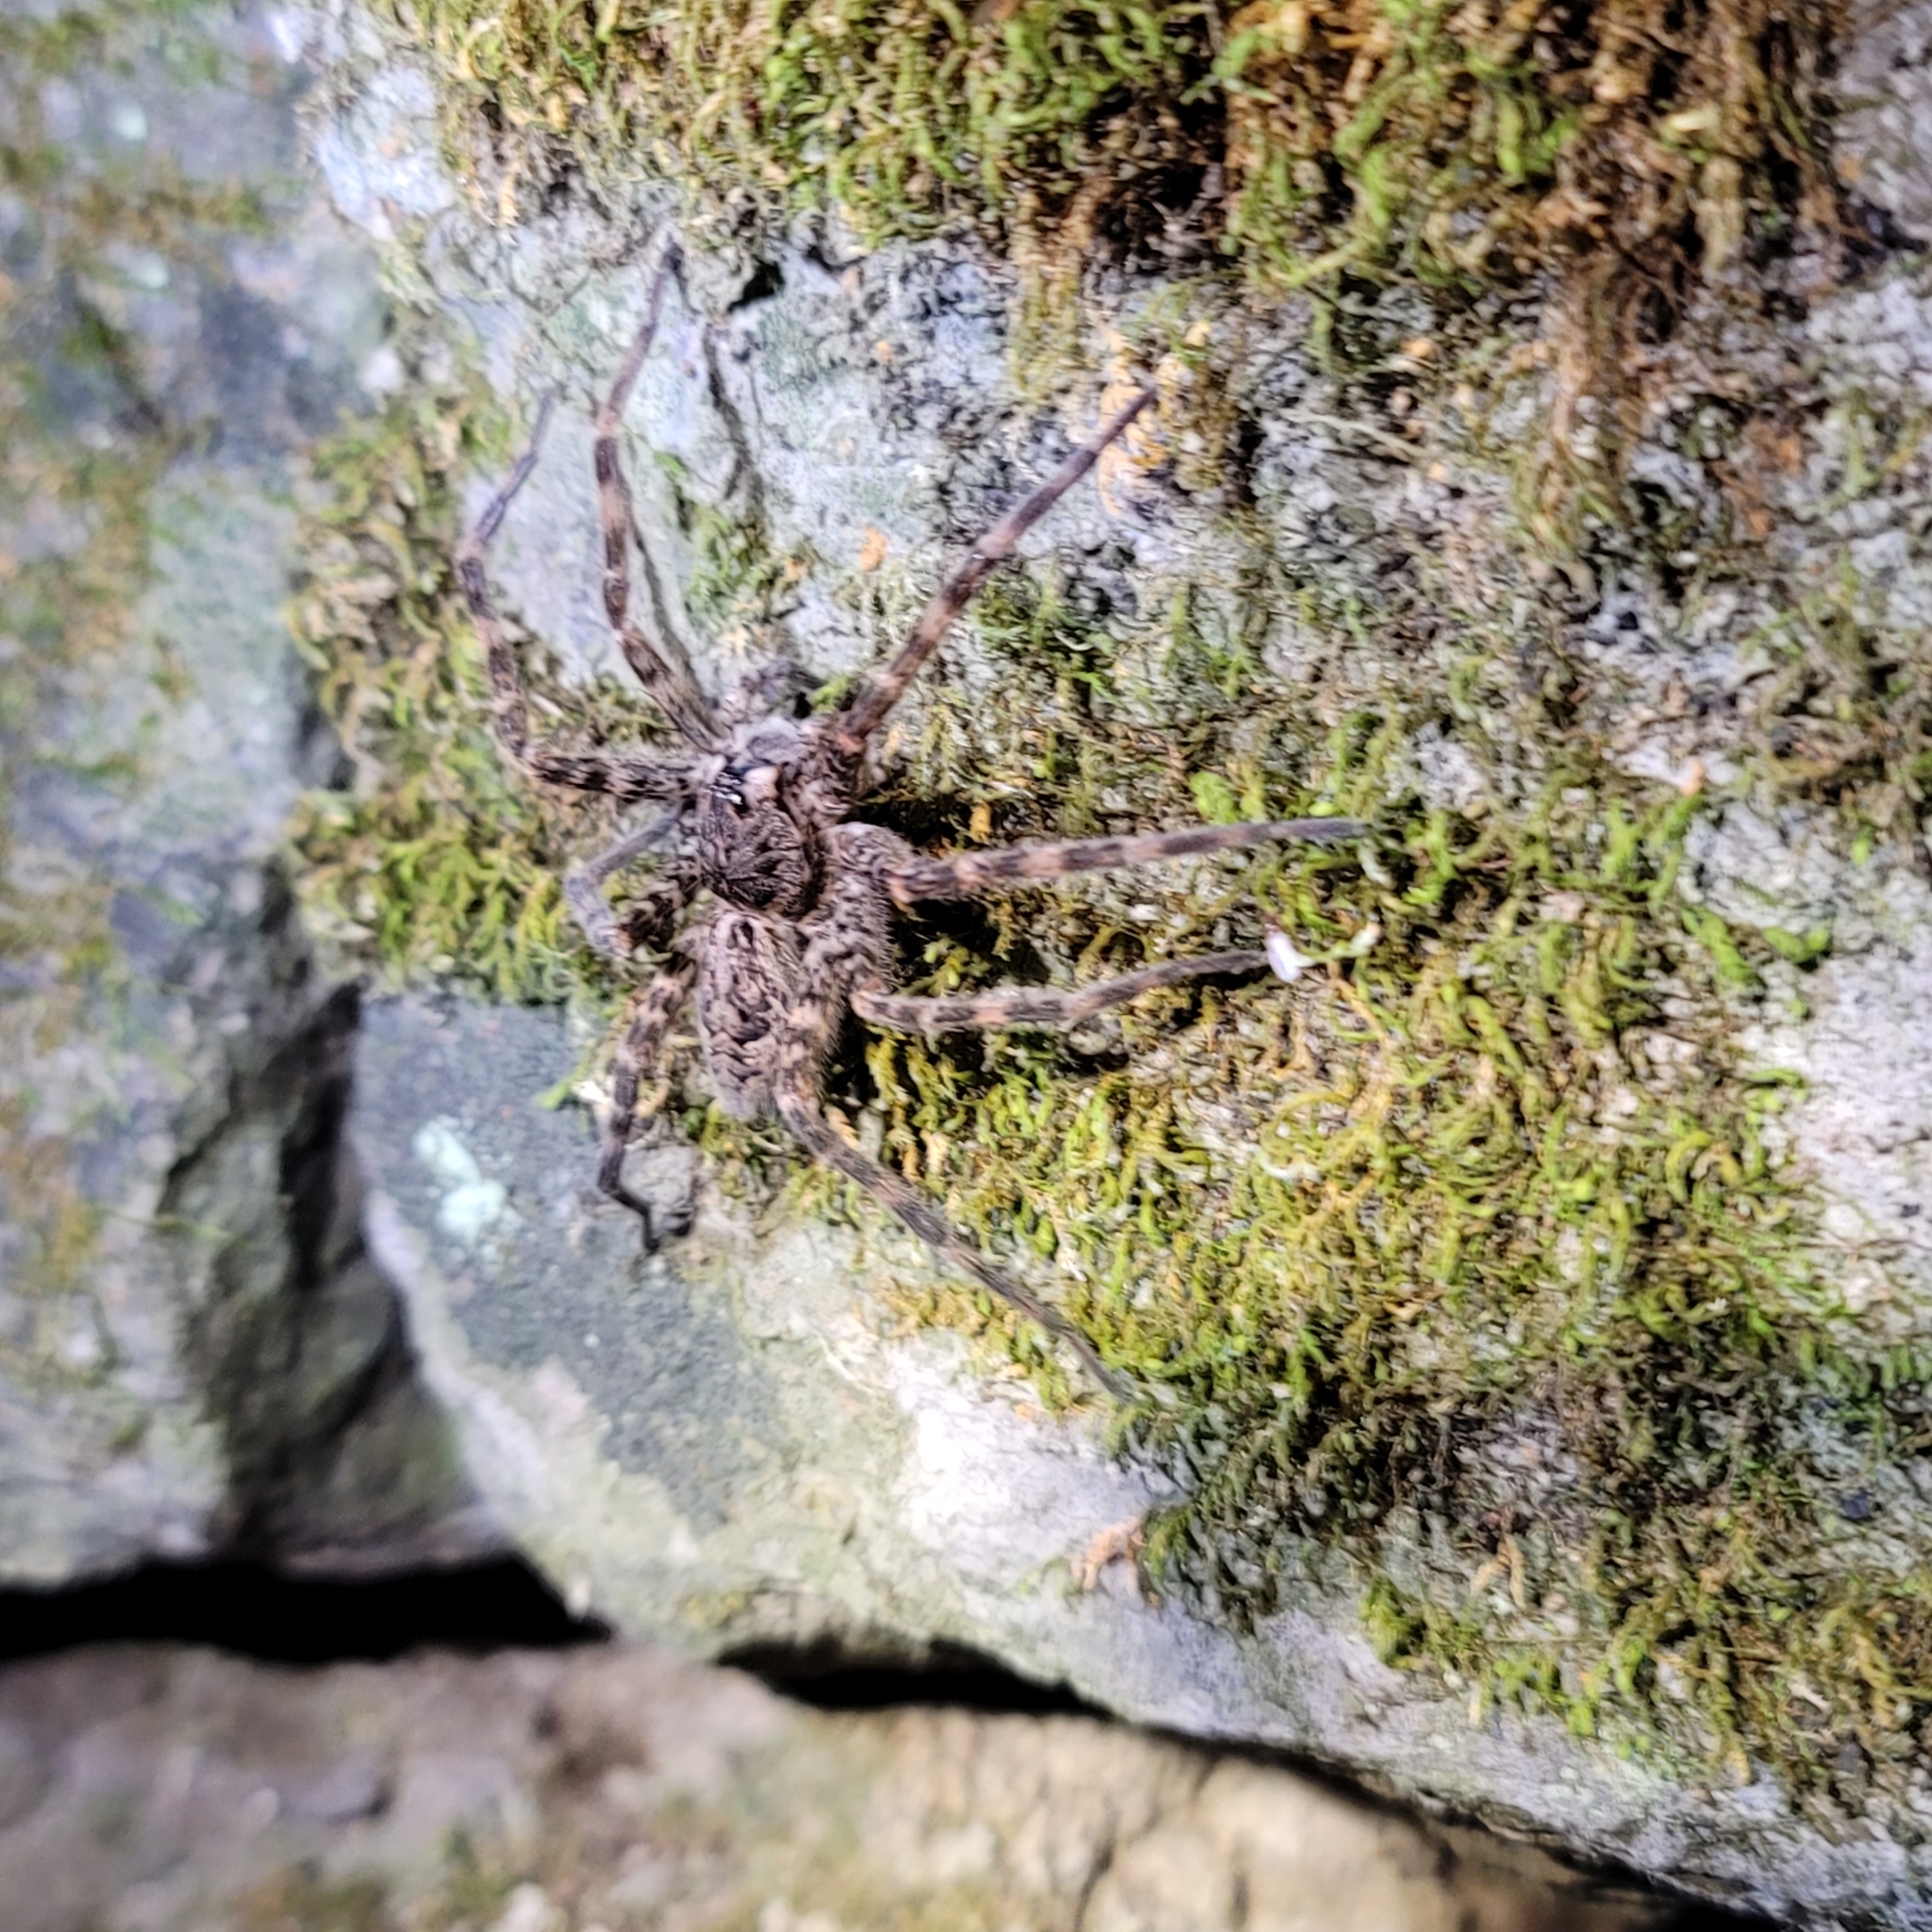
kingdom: Animalia
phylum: Arthropoda
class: Arachnida
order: Araneae
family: Pisauridae
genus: Dolomedes
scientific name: Dolomedes tenebrosus
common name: Dark fishing spider
